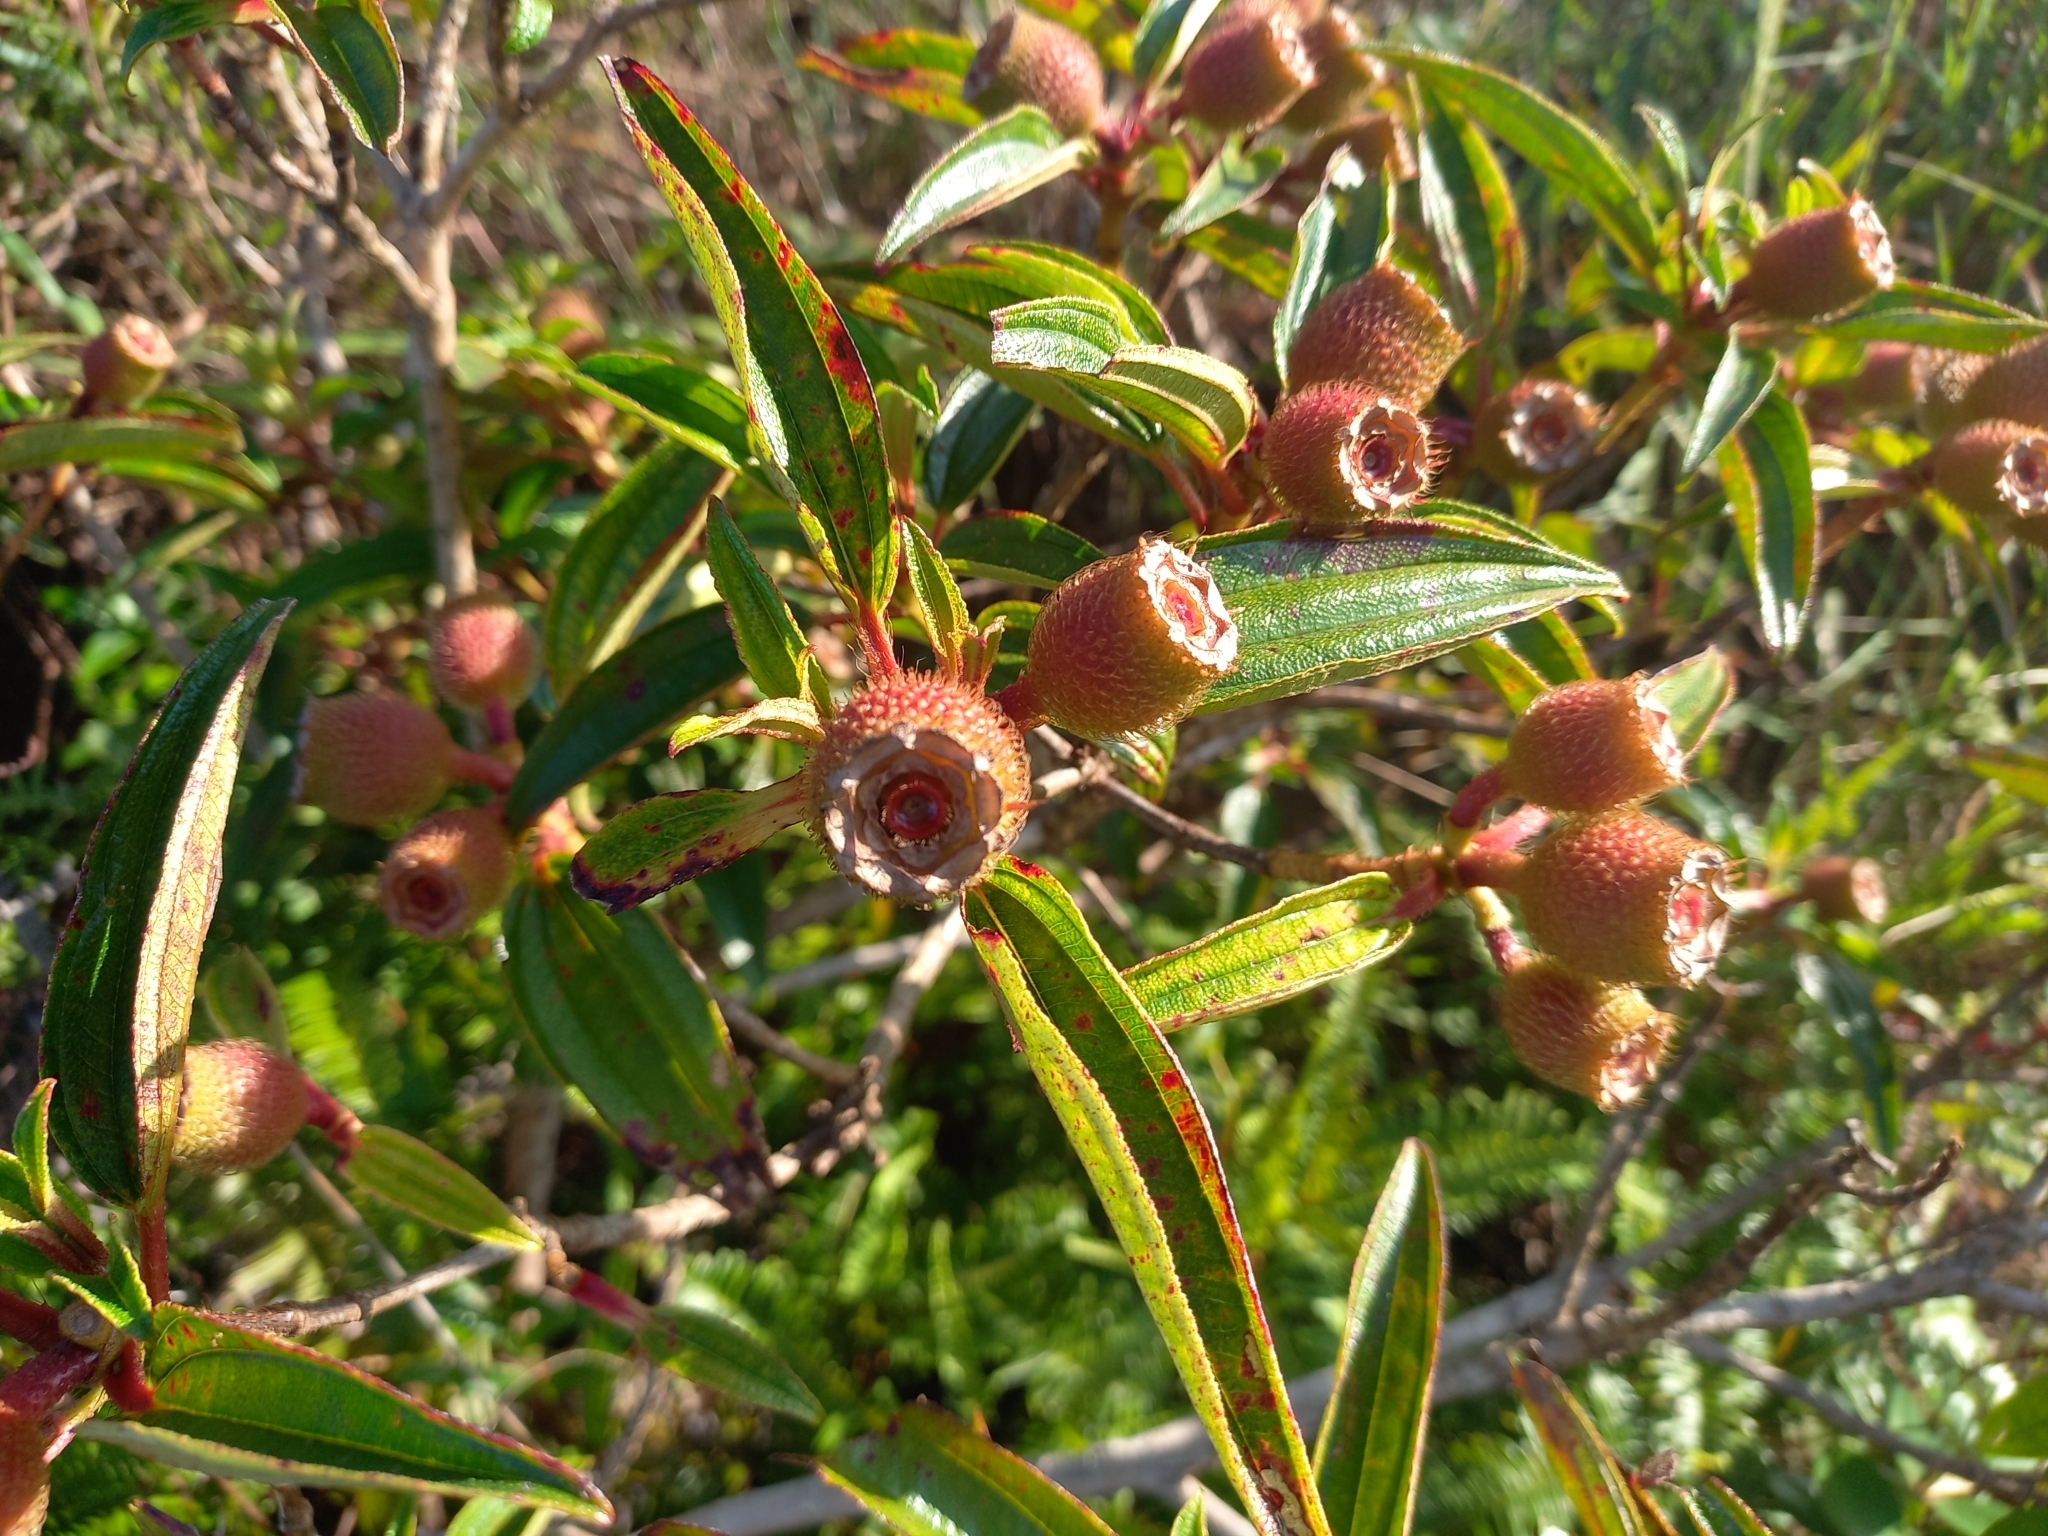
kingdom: Plantae
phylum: Tracheophyta
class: Magnoliopsida
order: Myrtales
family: Melastomataceae
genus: Melastoma
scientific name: Melastoma sanguineum
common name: Red melastome
